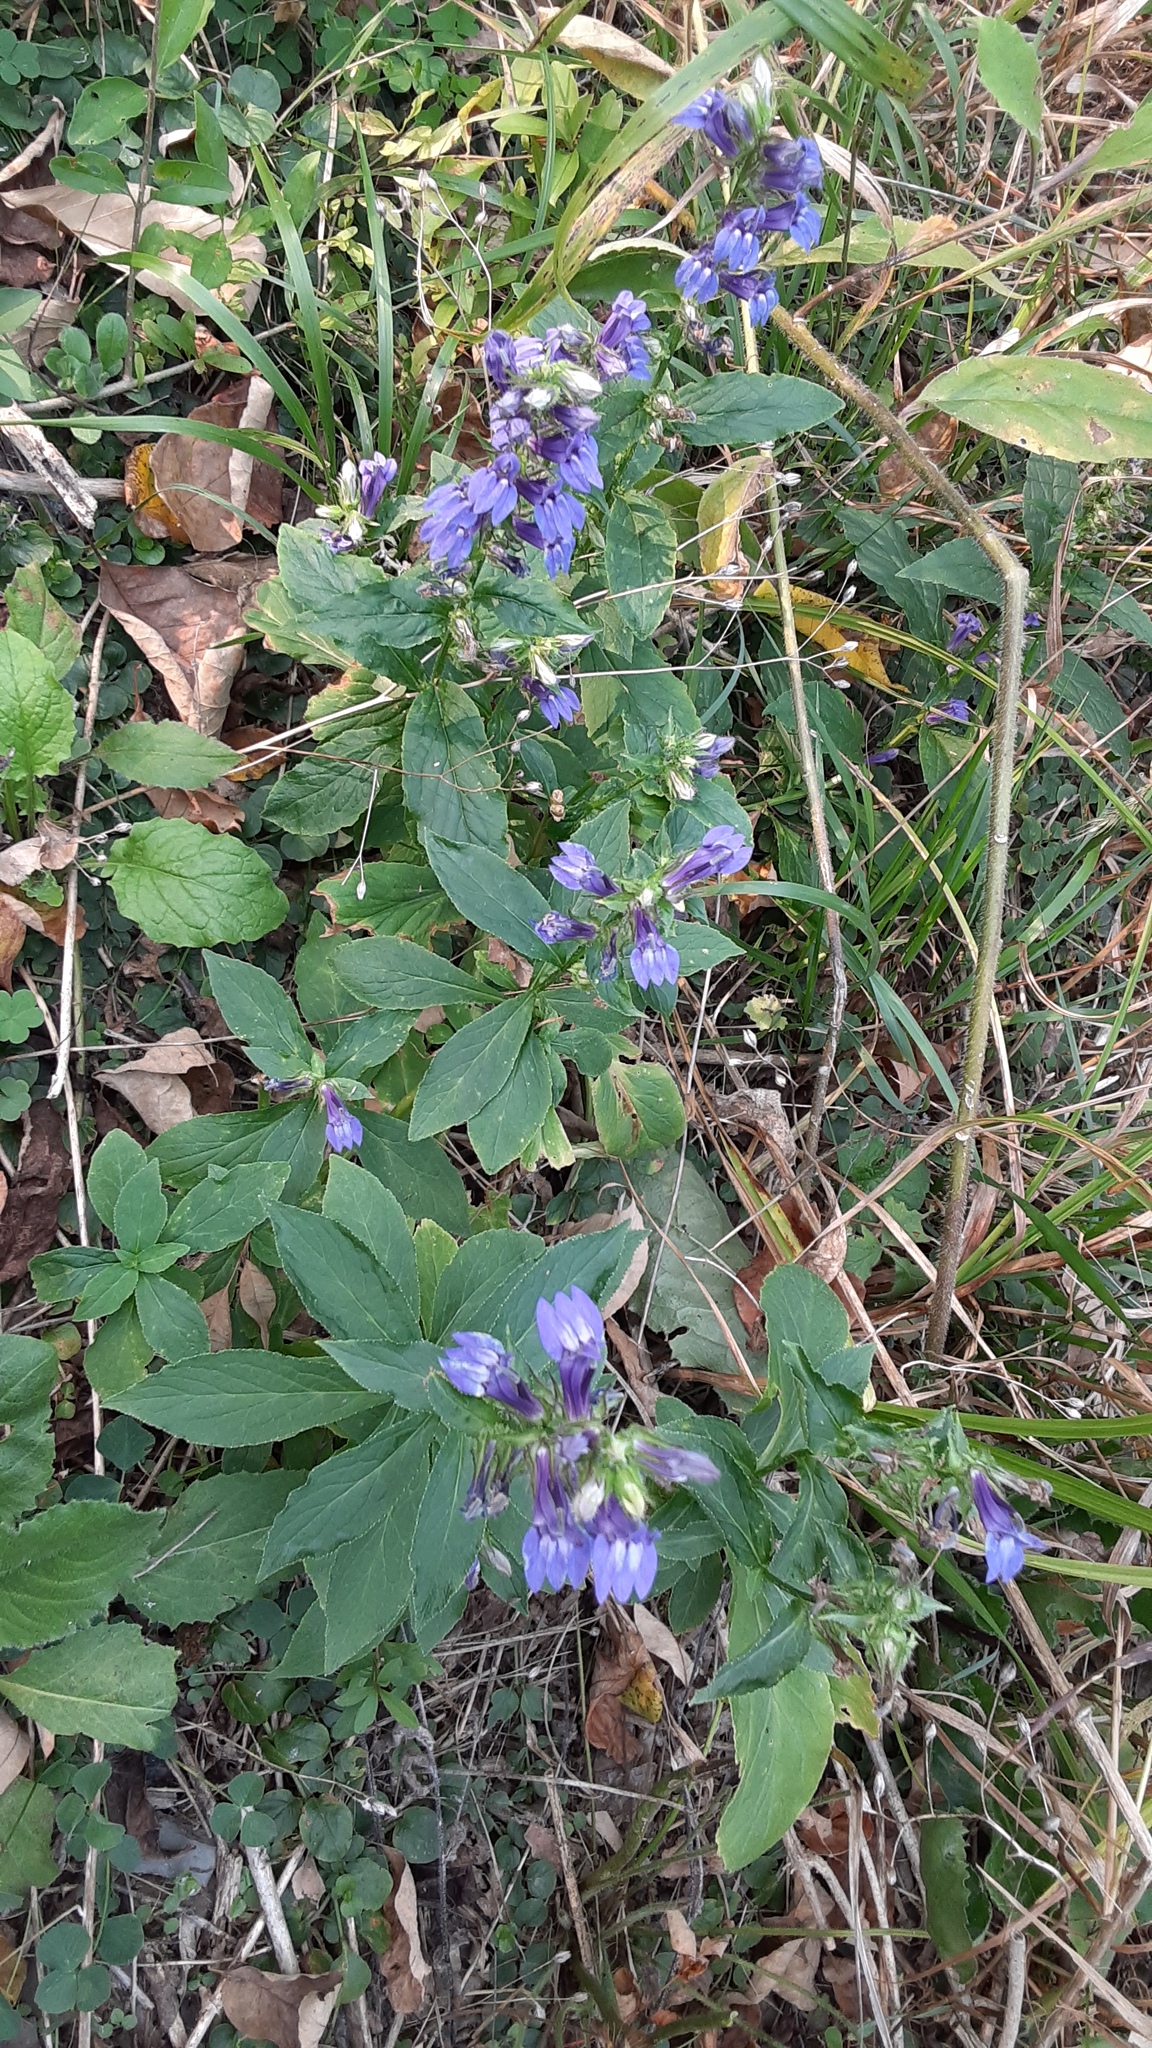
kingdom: Plantae
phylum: Tracheophyta
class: Magnoliopsida
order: Asterales
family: Campanulaceae
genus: Lobelia
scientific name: Lobelia siphilitica
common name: Great lobelia
